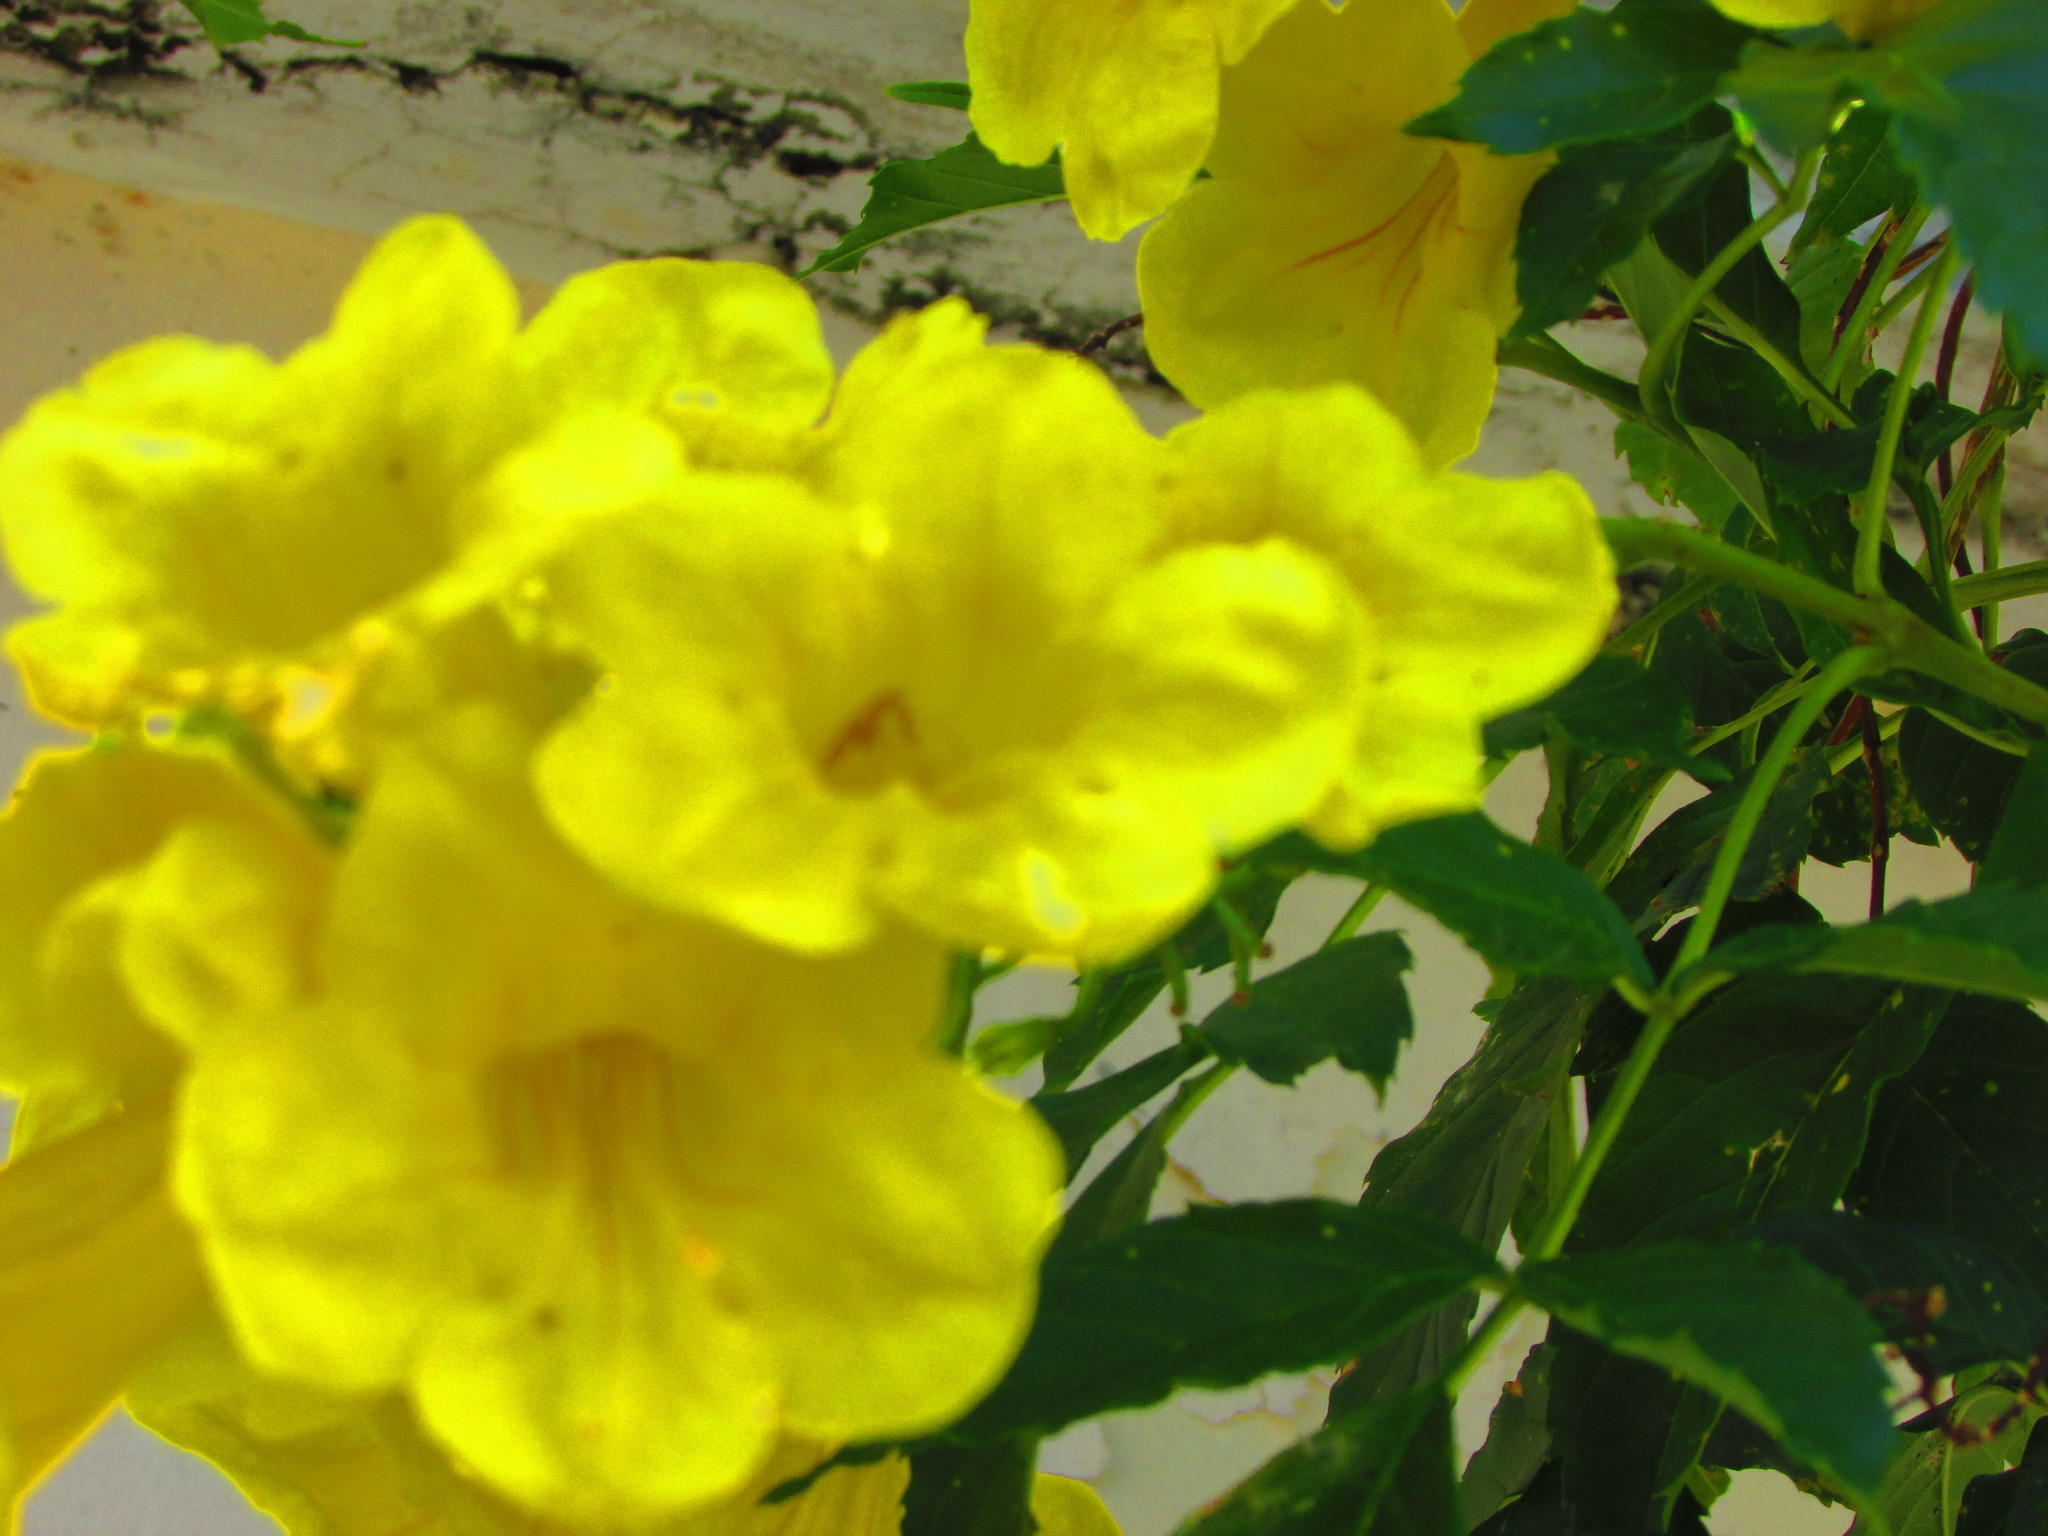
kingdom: Plantae
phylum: Tracheophyta
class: Magnoliopsida
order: Lamiales
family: Bignoniaceae
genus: Tecoma
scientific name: Tecoma stans
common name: Yellow trumpetbush
